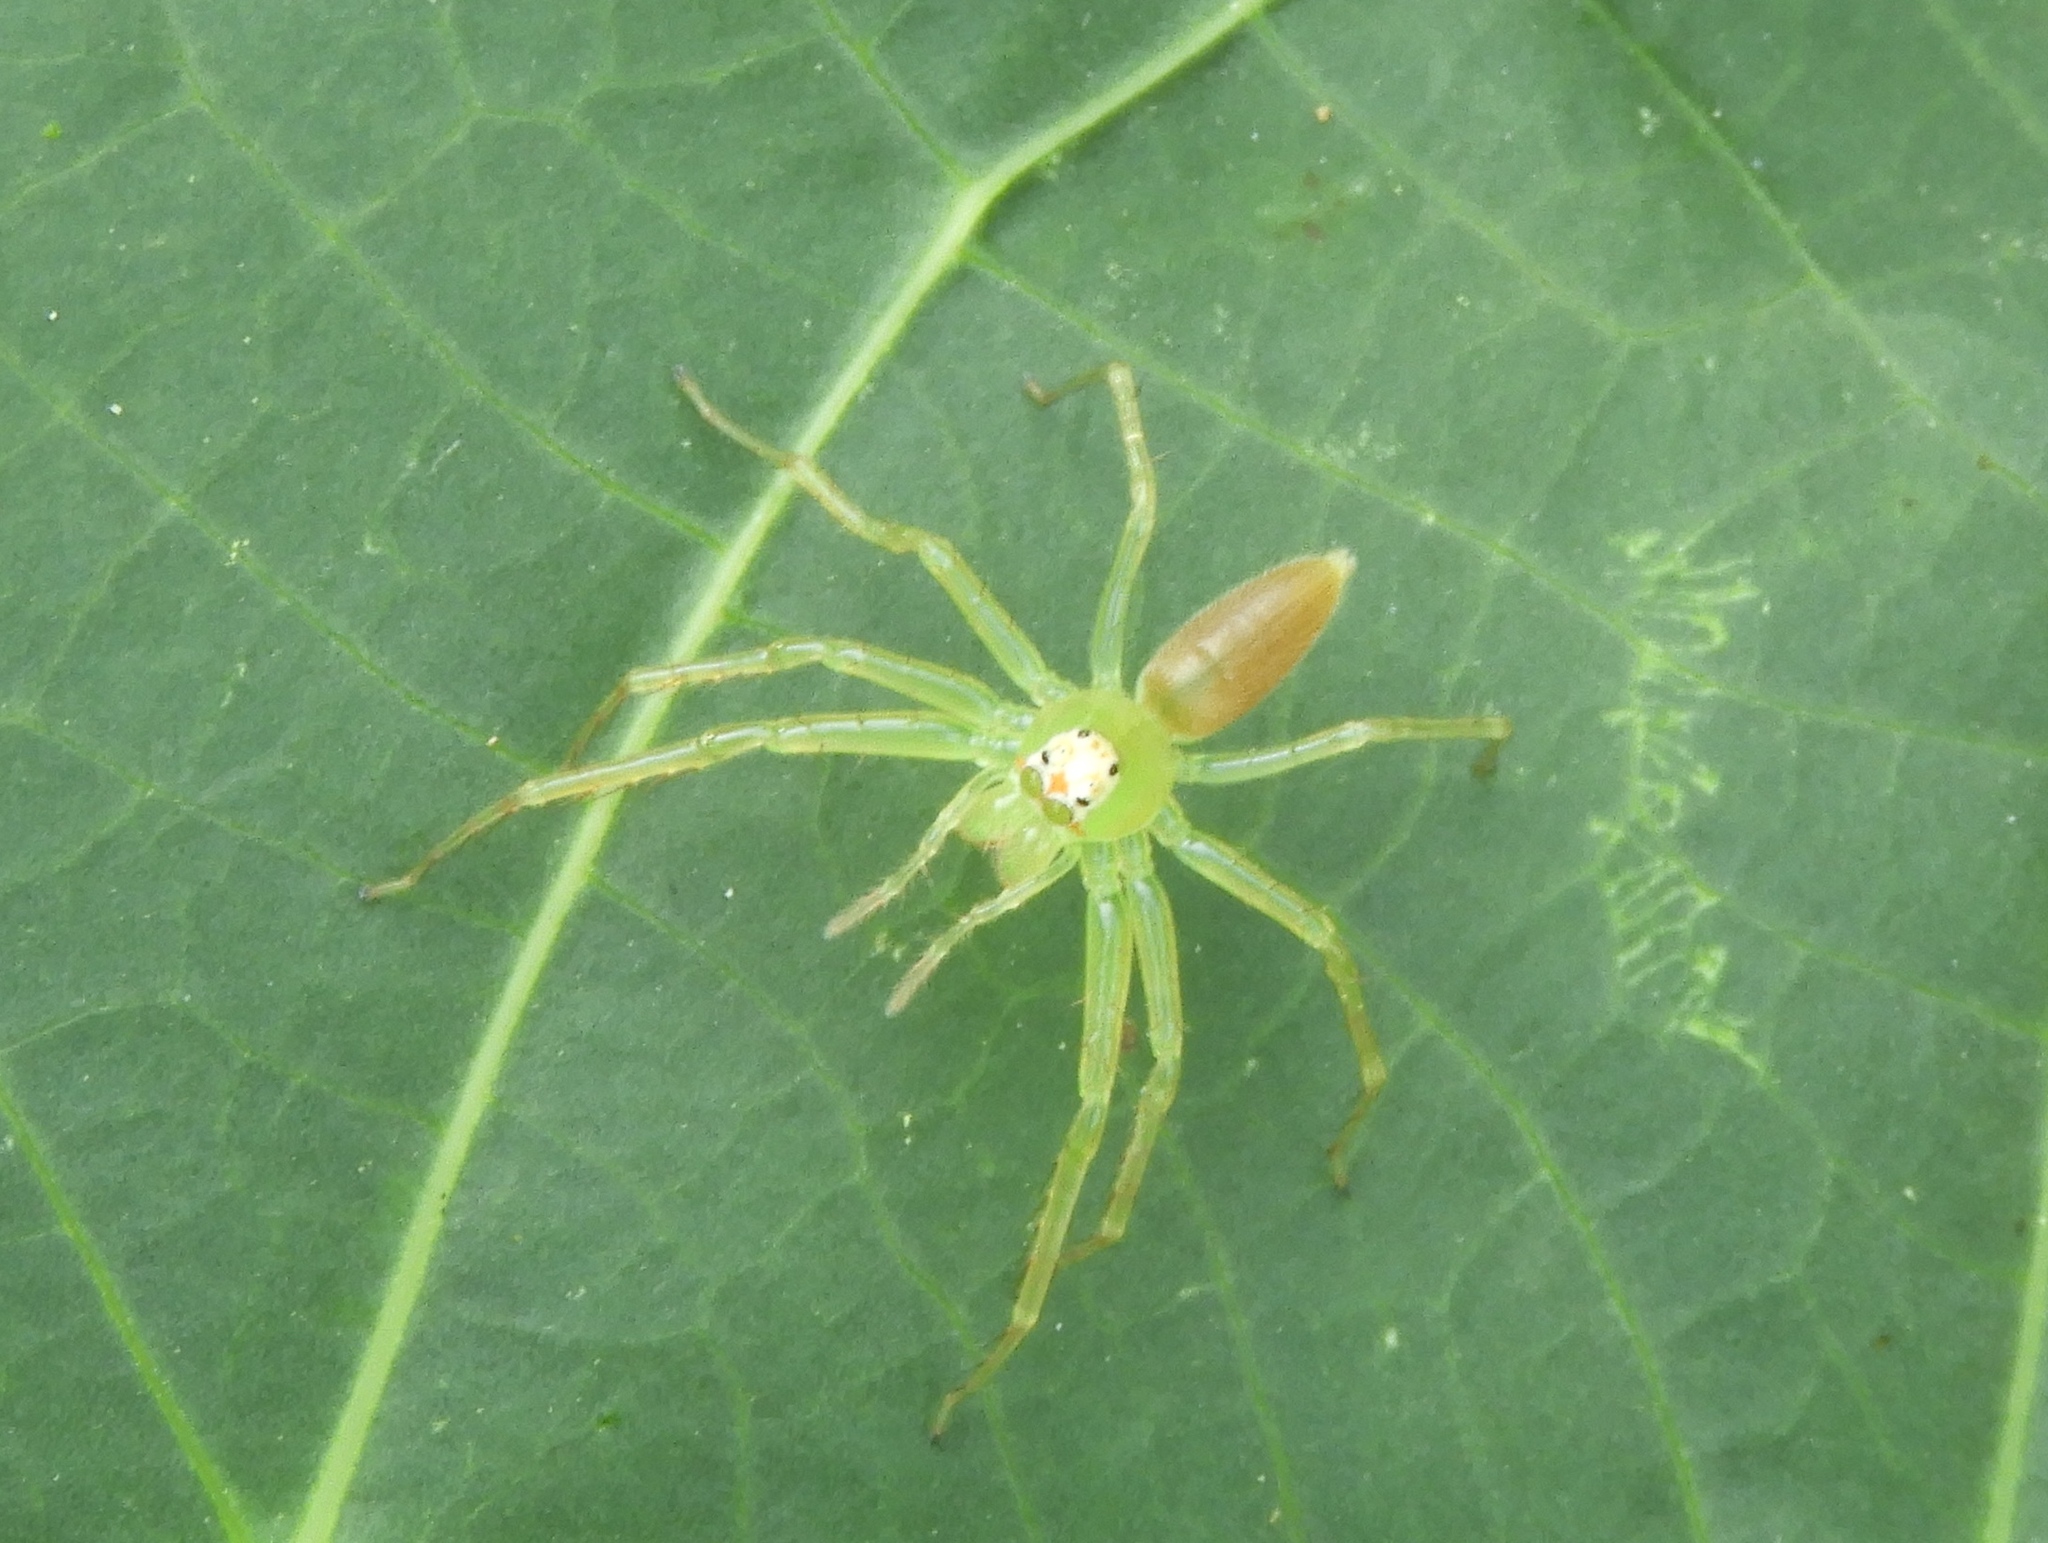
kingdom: Animalia
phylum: Arthropoda
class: Arachnida
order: Araneae
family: Salticidae
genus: Lyssomanes
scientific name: Lyssomanes
